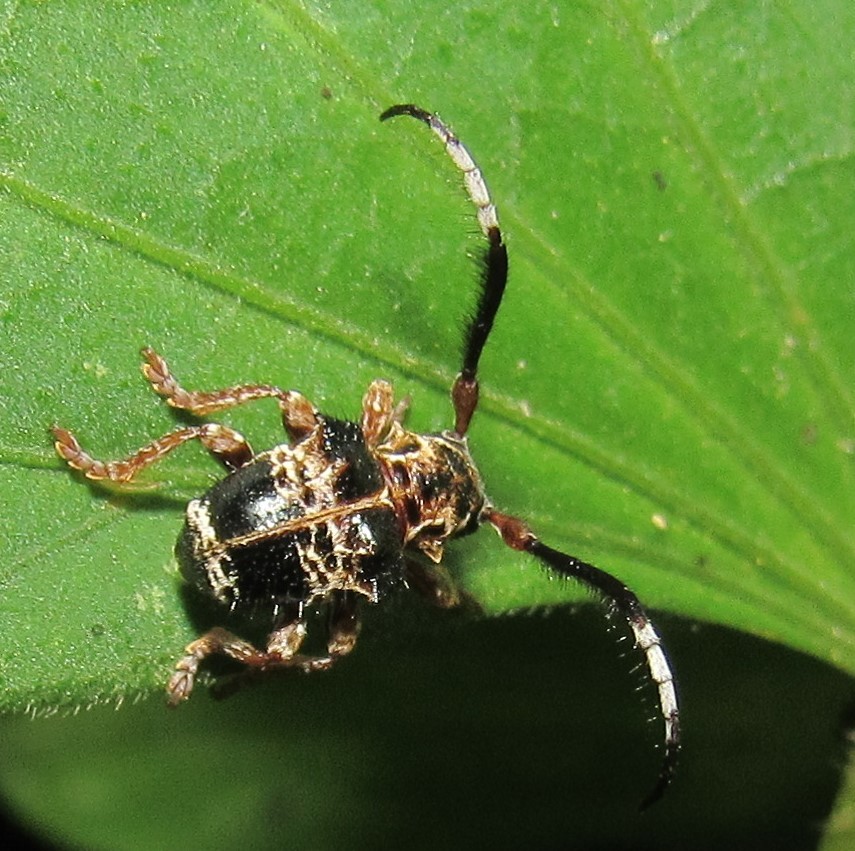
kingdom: Animalia
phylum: Arthropoda
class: Insecta
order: Coleoptera
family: Cerambycidae
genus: Tessarecphora
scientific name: Tessarecphora arachnoides
